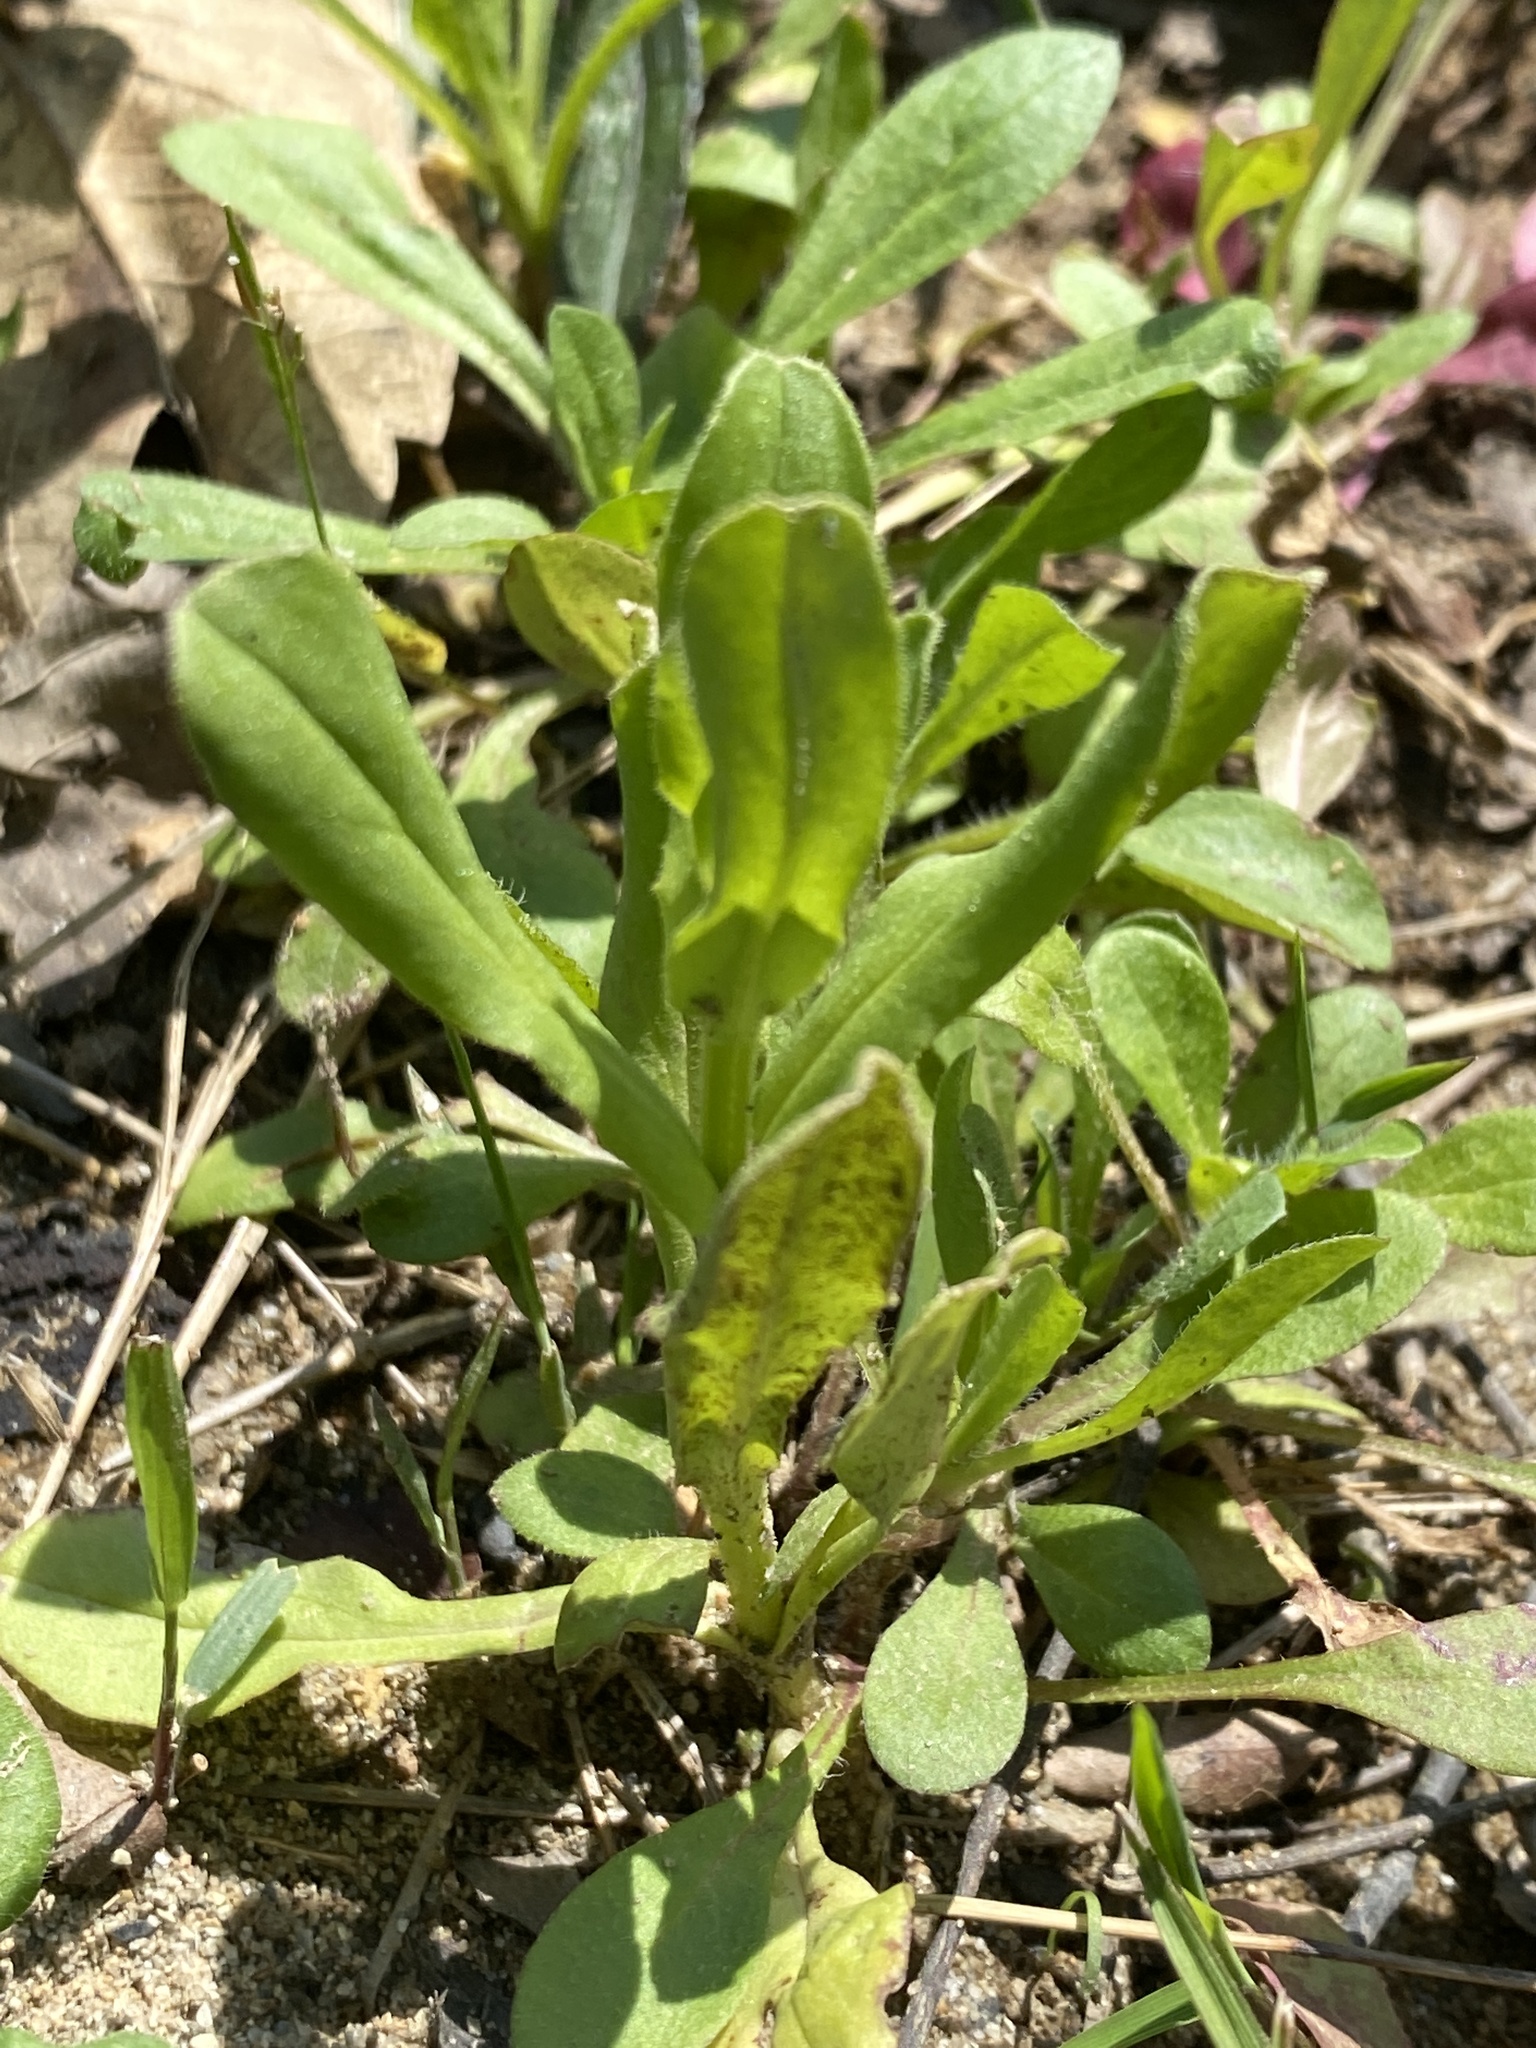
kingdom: Plantae
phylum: Tracheophyta
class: Magnoliopsida
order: Dipsacales
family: Caprifoliaceae
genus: Valerianella
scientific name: Valerianella radiata
